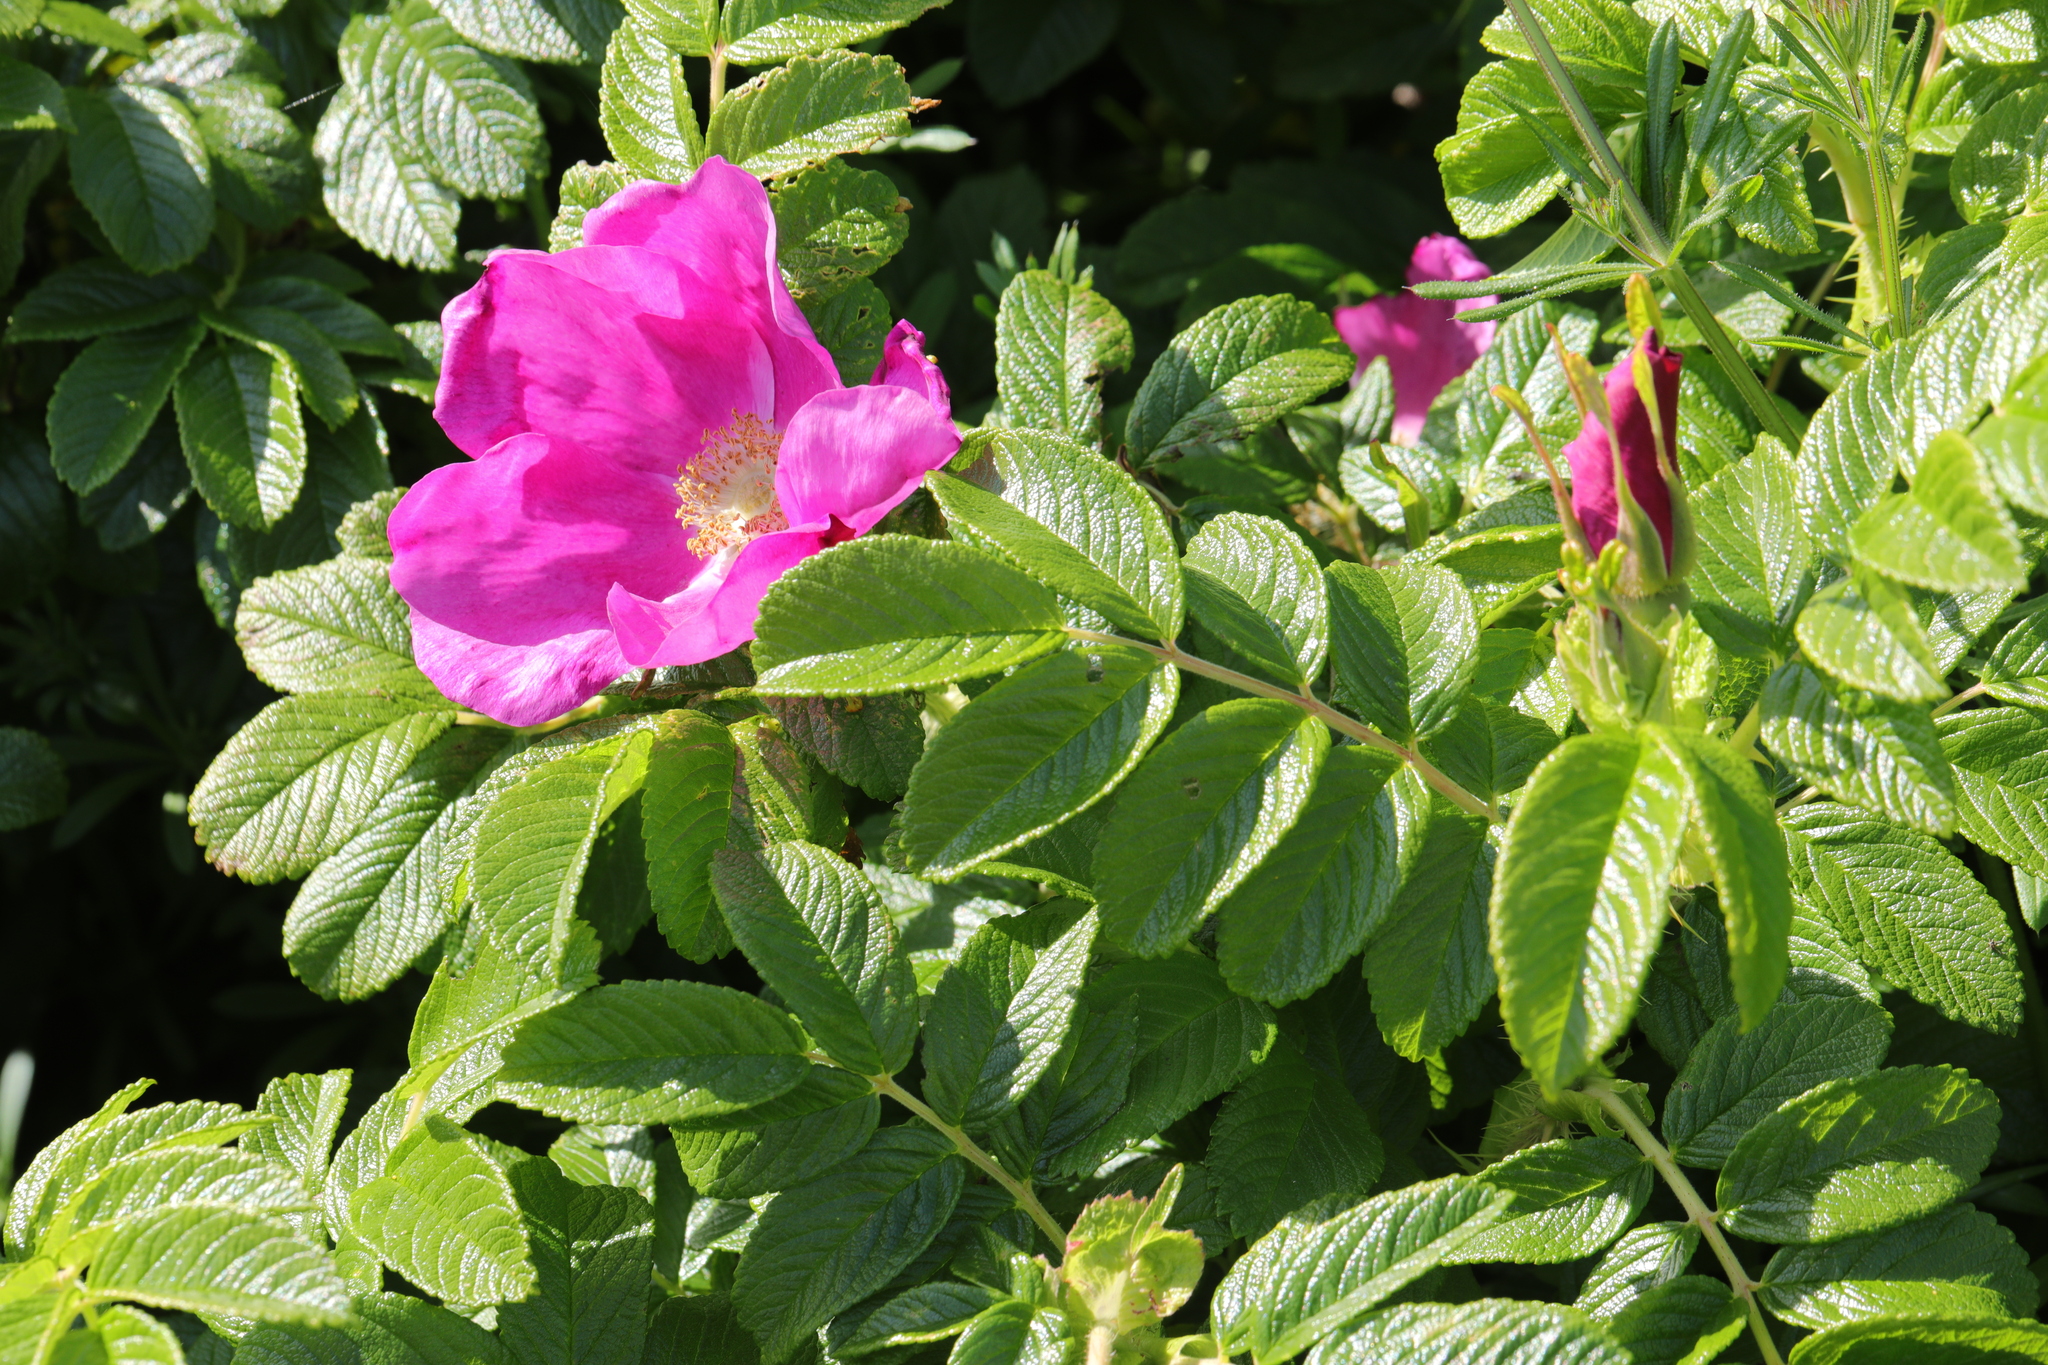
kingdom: Plantae
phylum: Tracheophyta
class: Magnoliopsida
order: Rosales
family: Rosaceae
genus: Rosa
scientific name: Rosa rugosa
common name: Japanese rose
